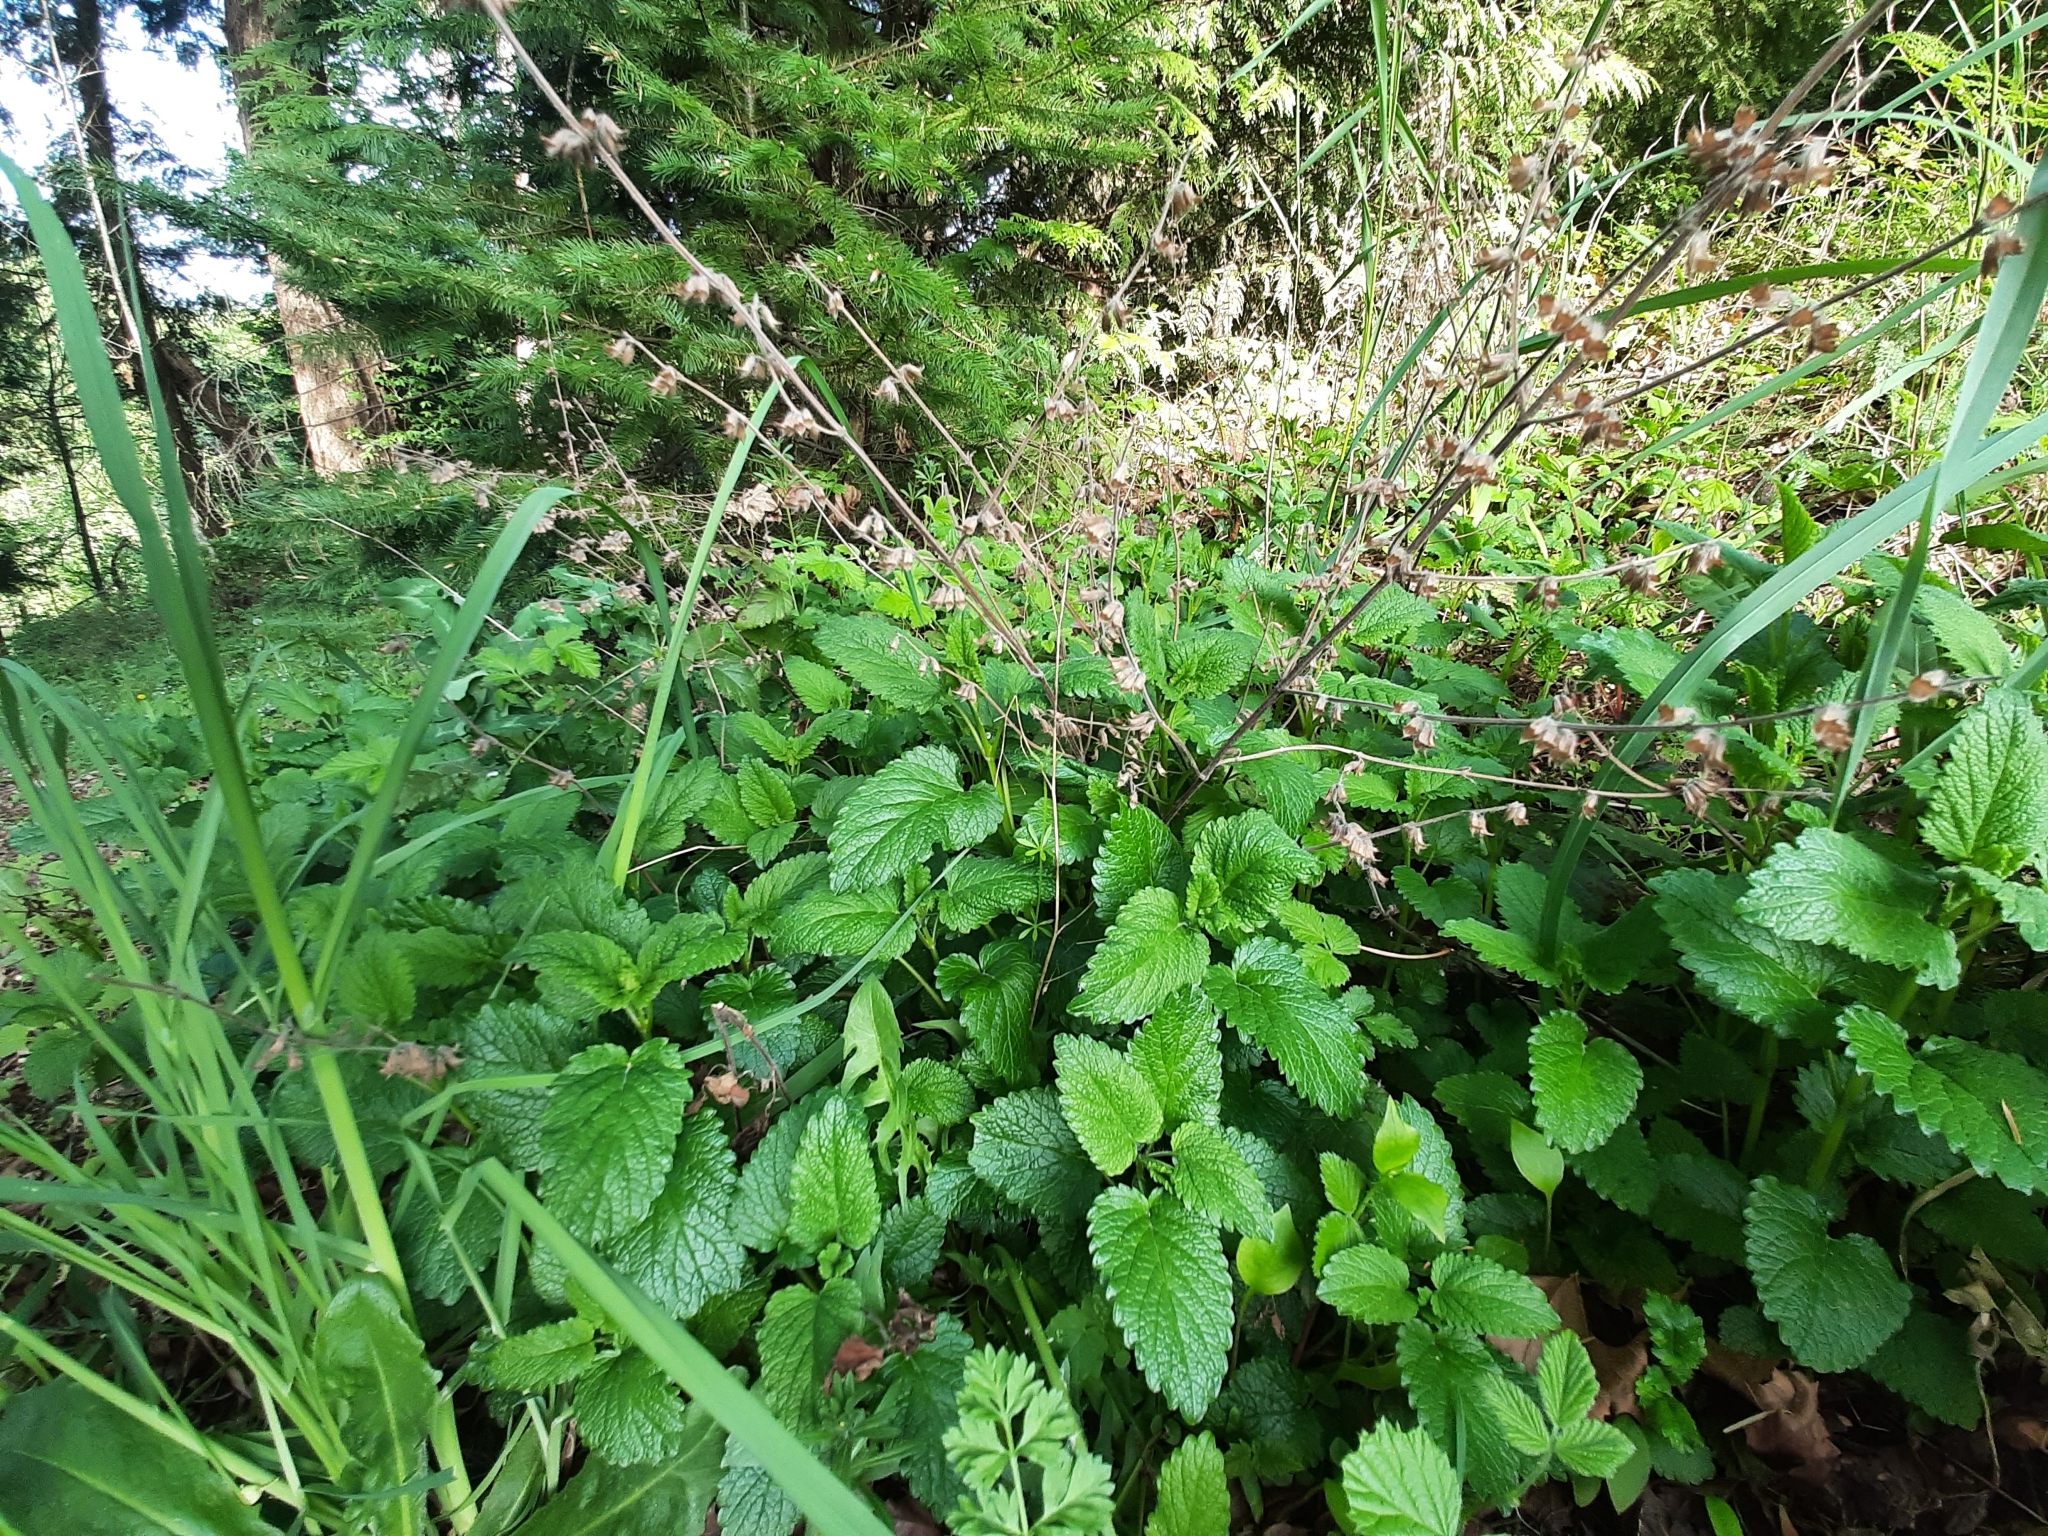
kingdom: Plantae
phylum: Tracheophyta
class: Magnoliopsida
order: Lamiales
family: Lamiaceae
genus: Melissa
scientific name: Melissa officinalis
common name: Balm
